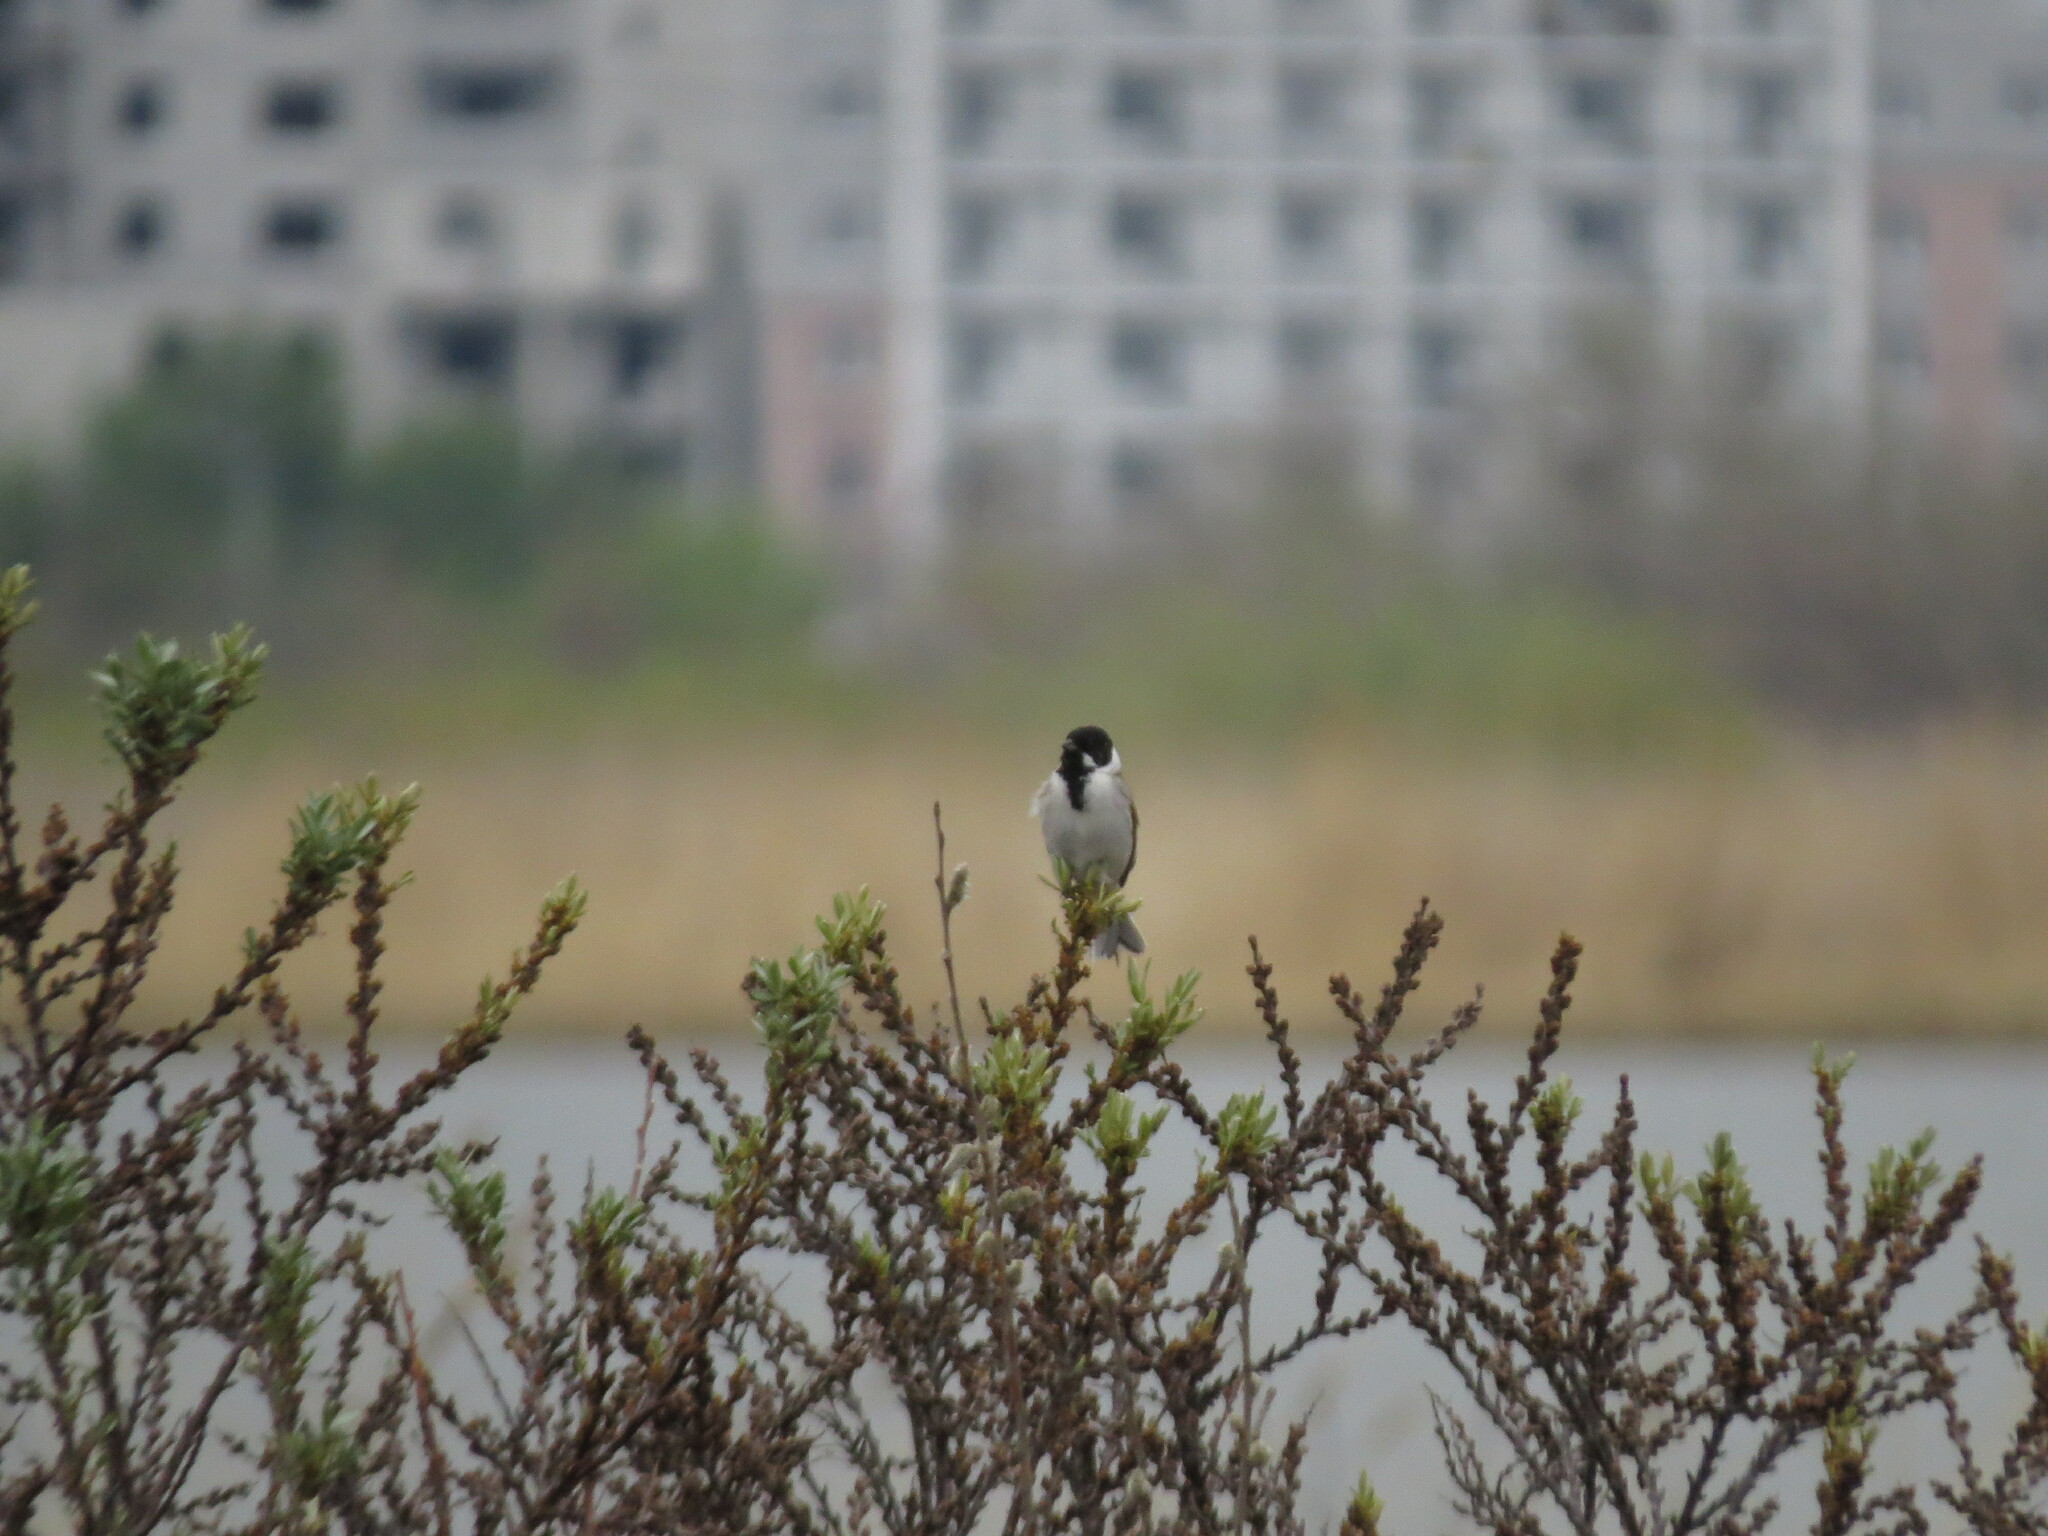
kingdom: Animalia
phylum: Chordata
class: Aves
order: Passeriformes
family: Emberizidae
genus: Emberiza
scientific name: Emberiza schoeniclus
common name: Reed bunting
